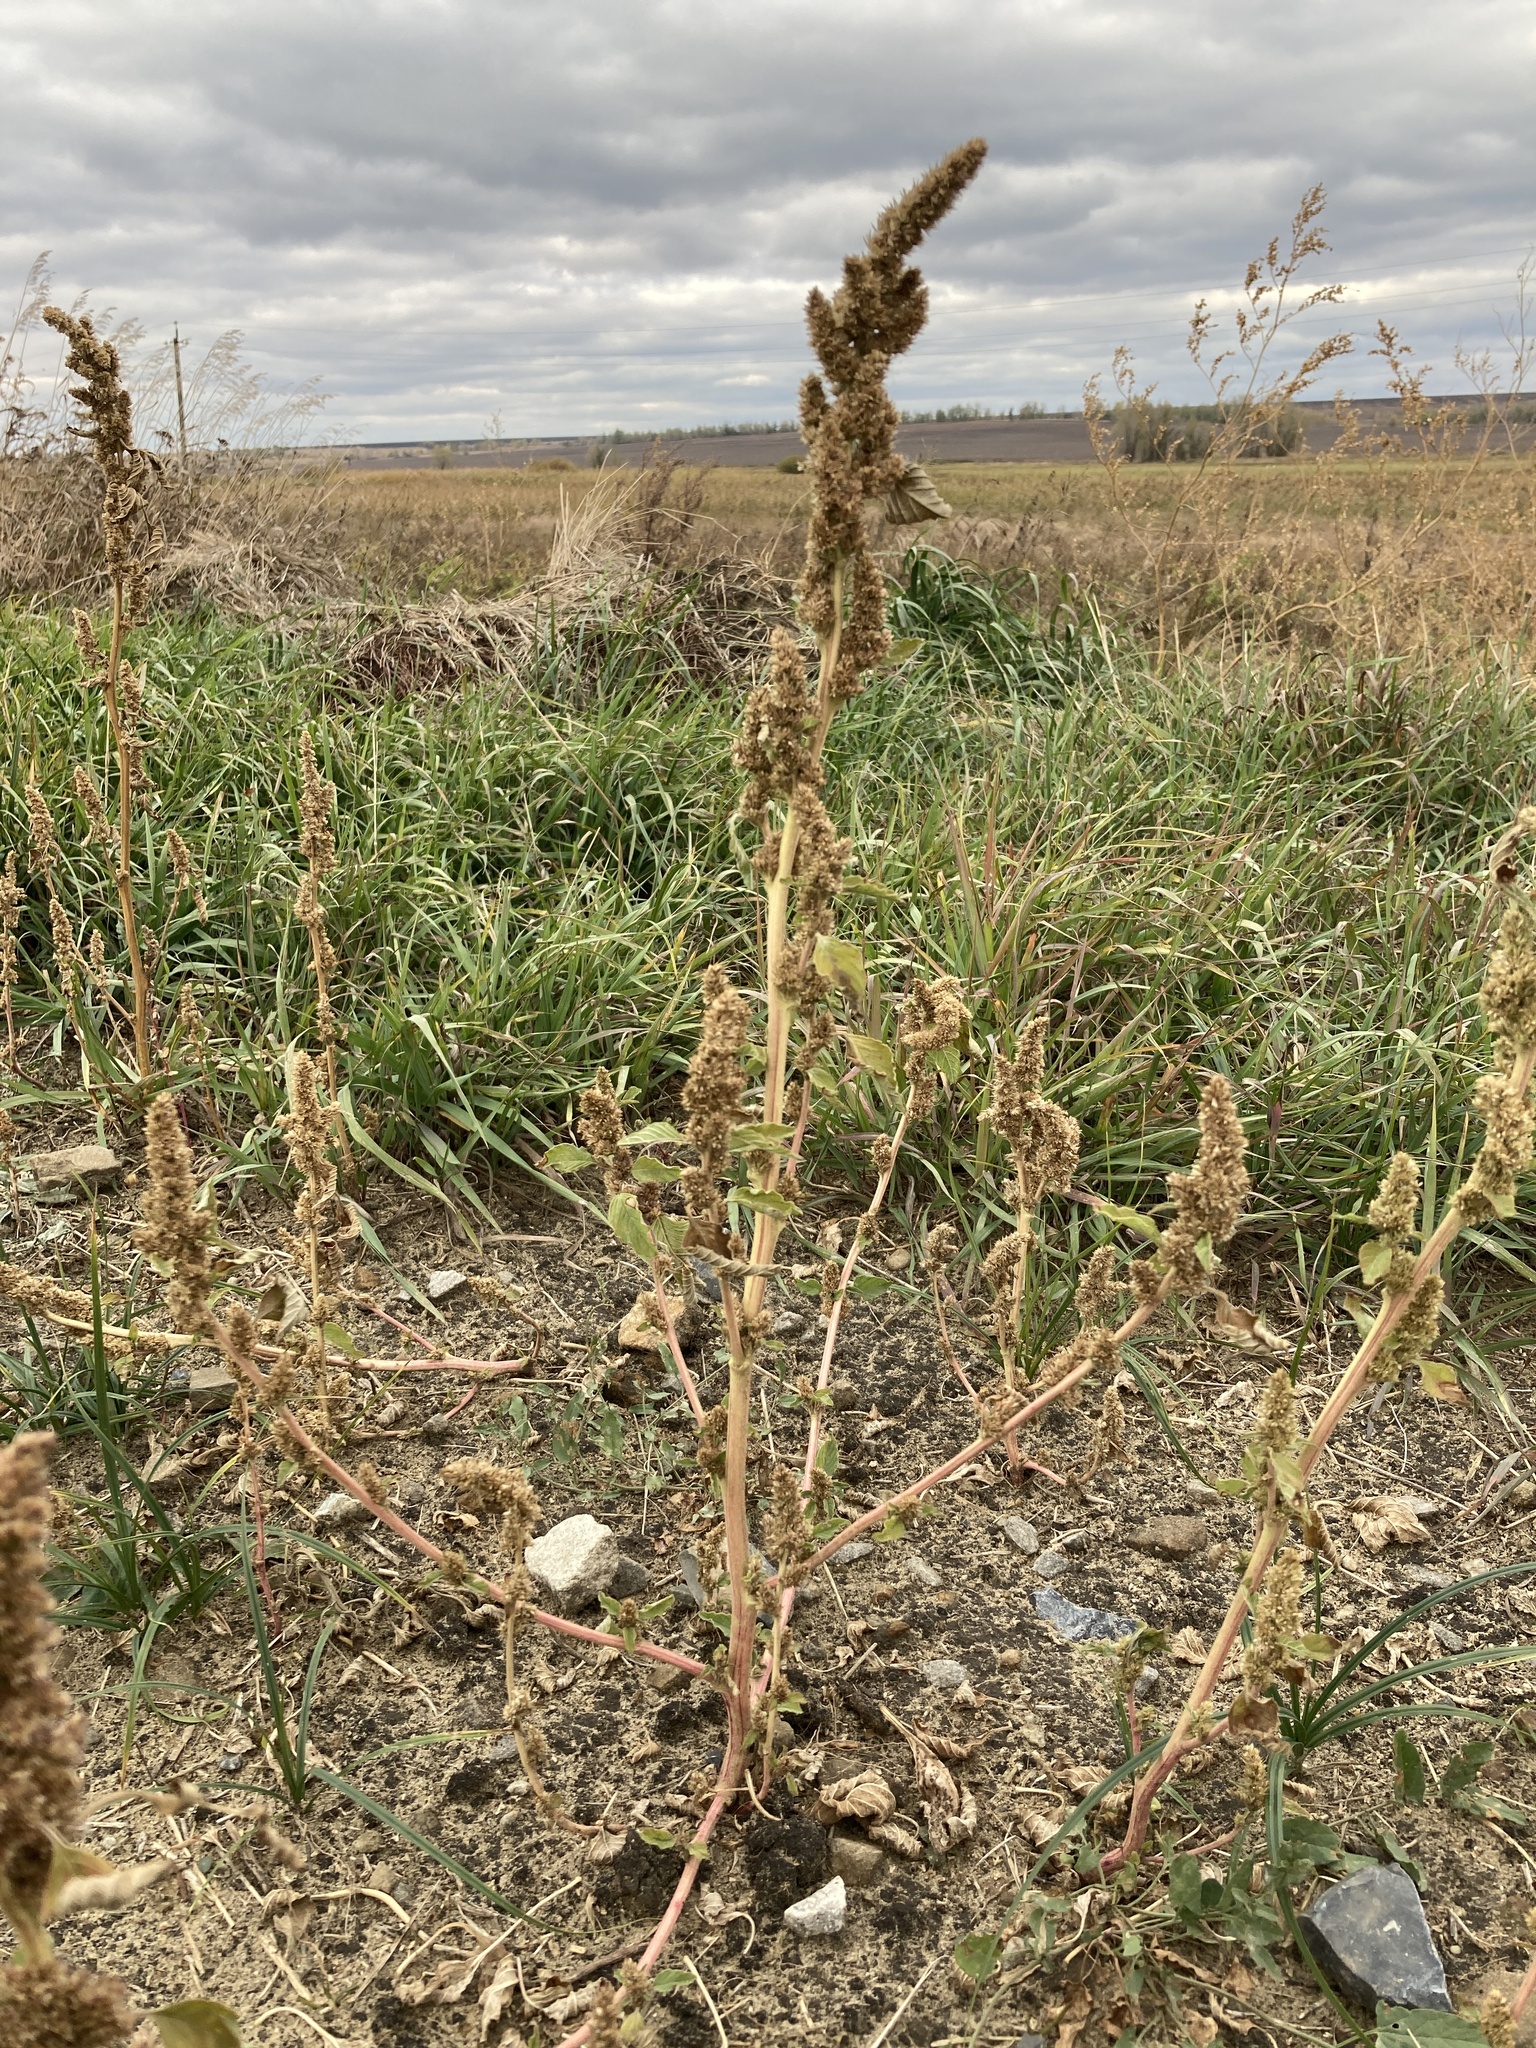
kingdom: Plantae
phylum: Tracheophyta
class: Magnoliopsida
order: Caryophyllales
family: Amaranthaceae
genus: Amaranthus
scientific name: Amaranthus retroflexus
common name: Redroot amaranth
